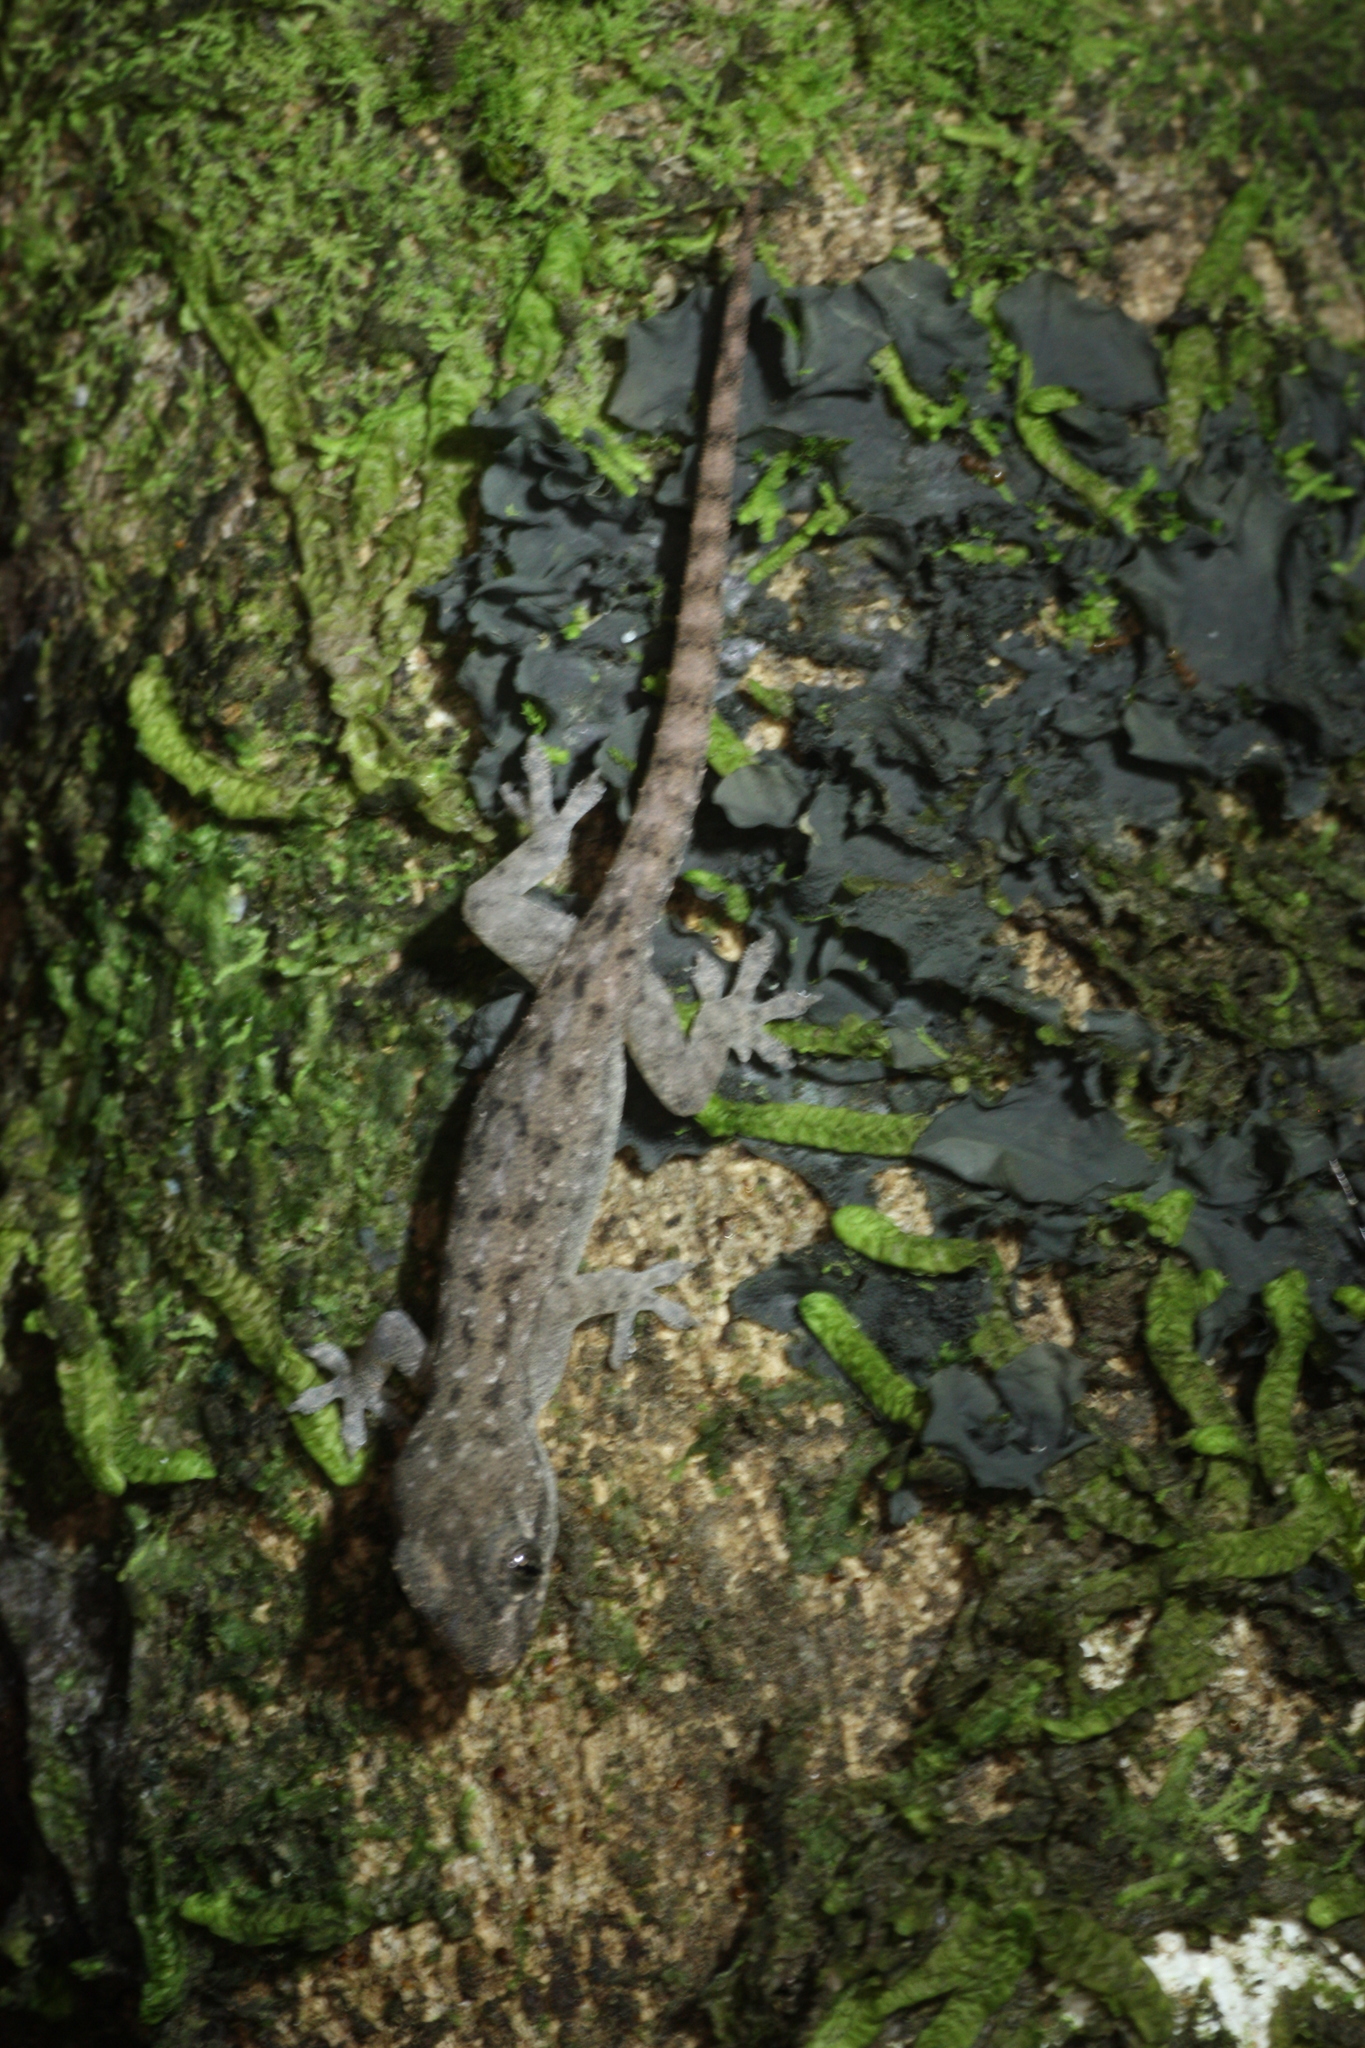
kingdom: Animalia
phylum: Chordata
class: Squamata
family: Gekkonidae
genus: Hemidactylus
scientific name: Hemidactylus frenatus
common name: Common house gecko
